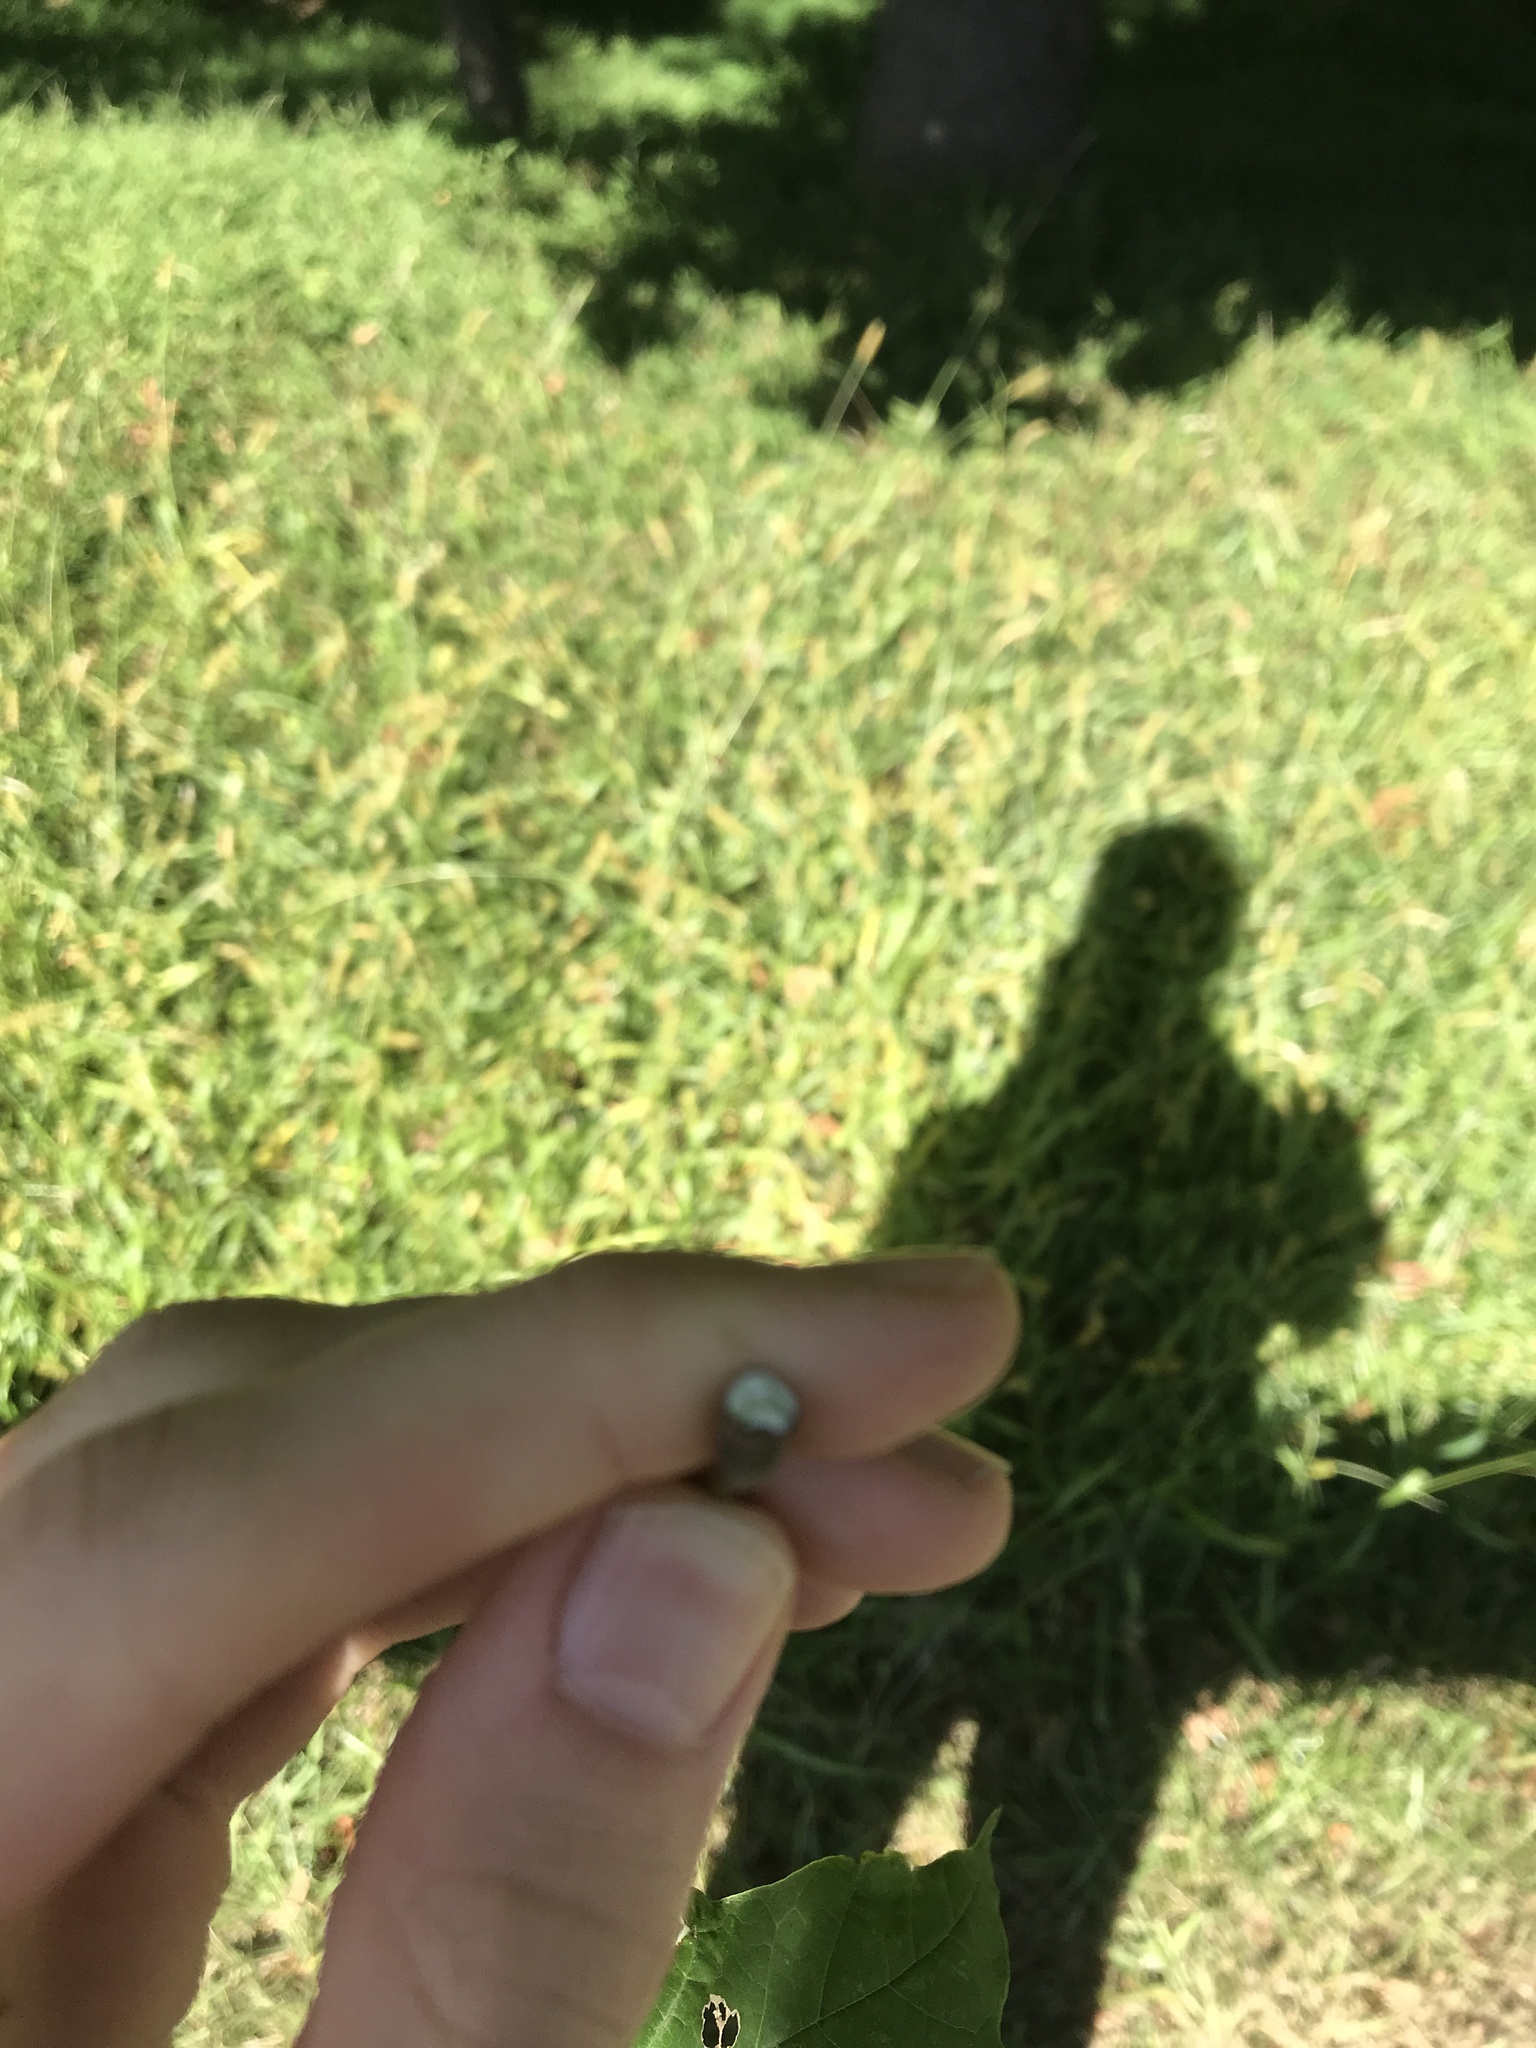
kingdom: Plantae
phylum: Tracheophyta
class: Magnoliopsida
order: Sapindales
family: Sapindaceae
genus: Acer
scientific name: Acer platanoides
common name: Norway maple
